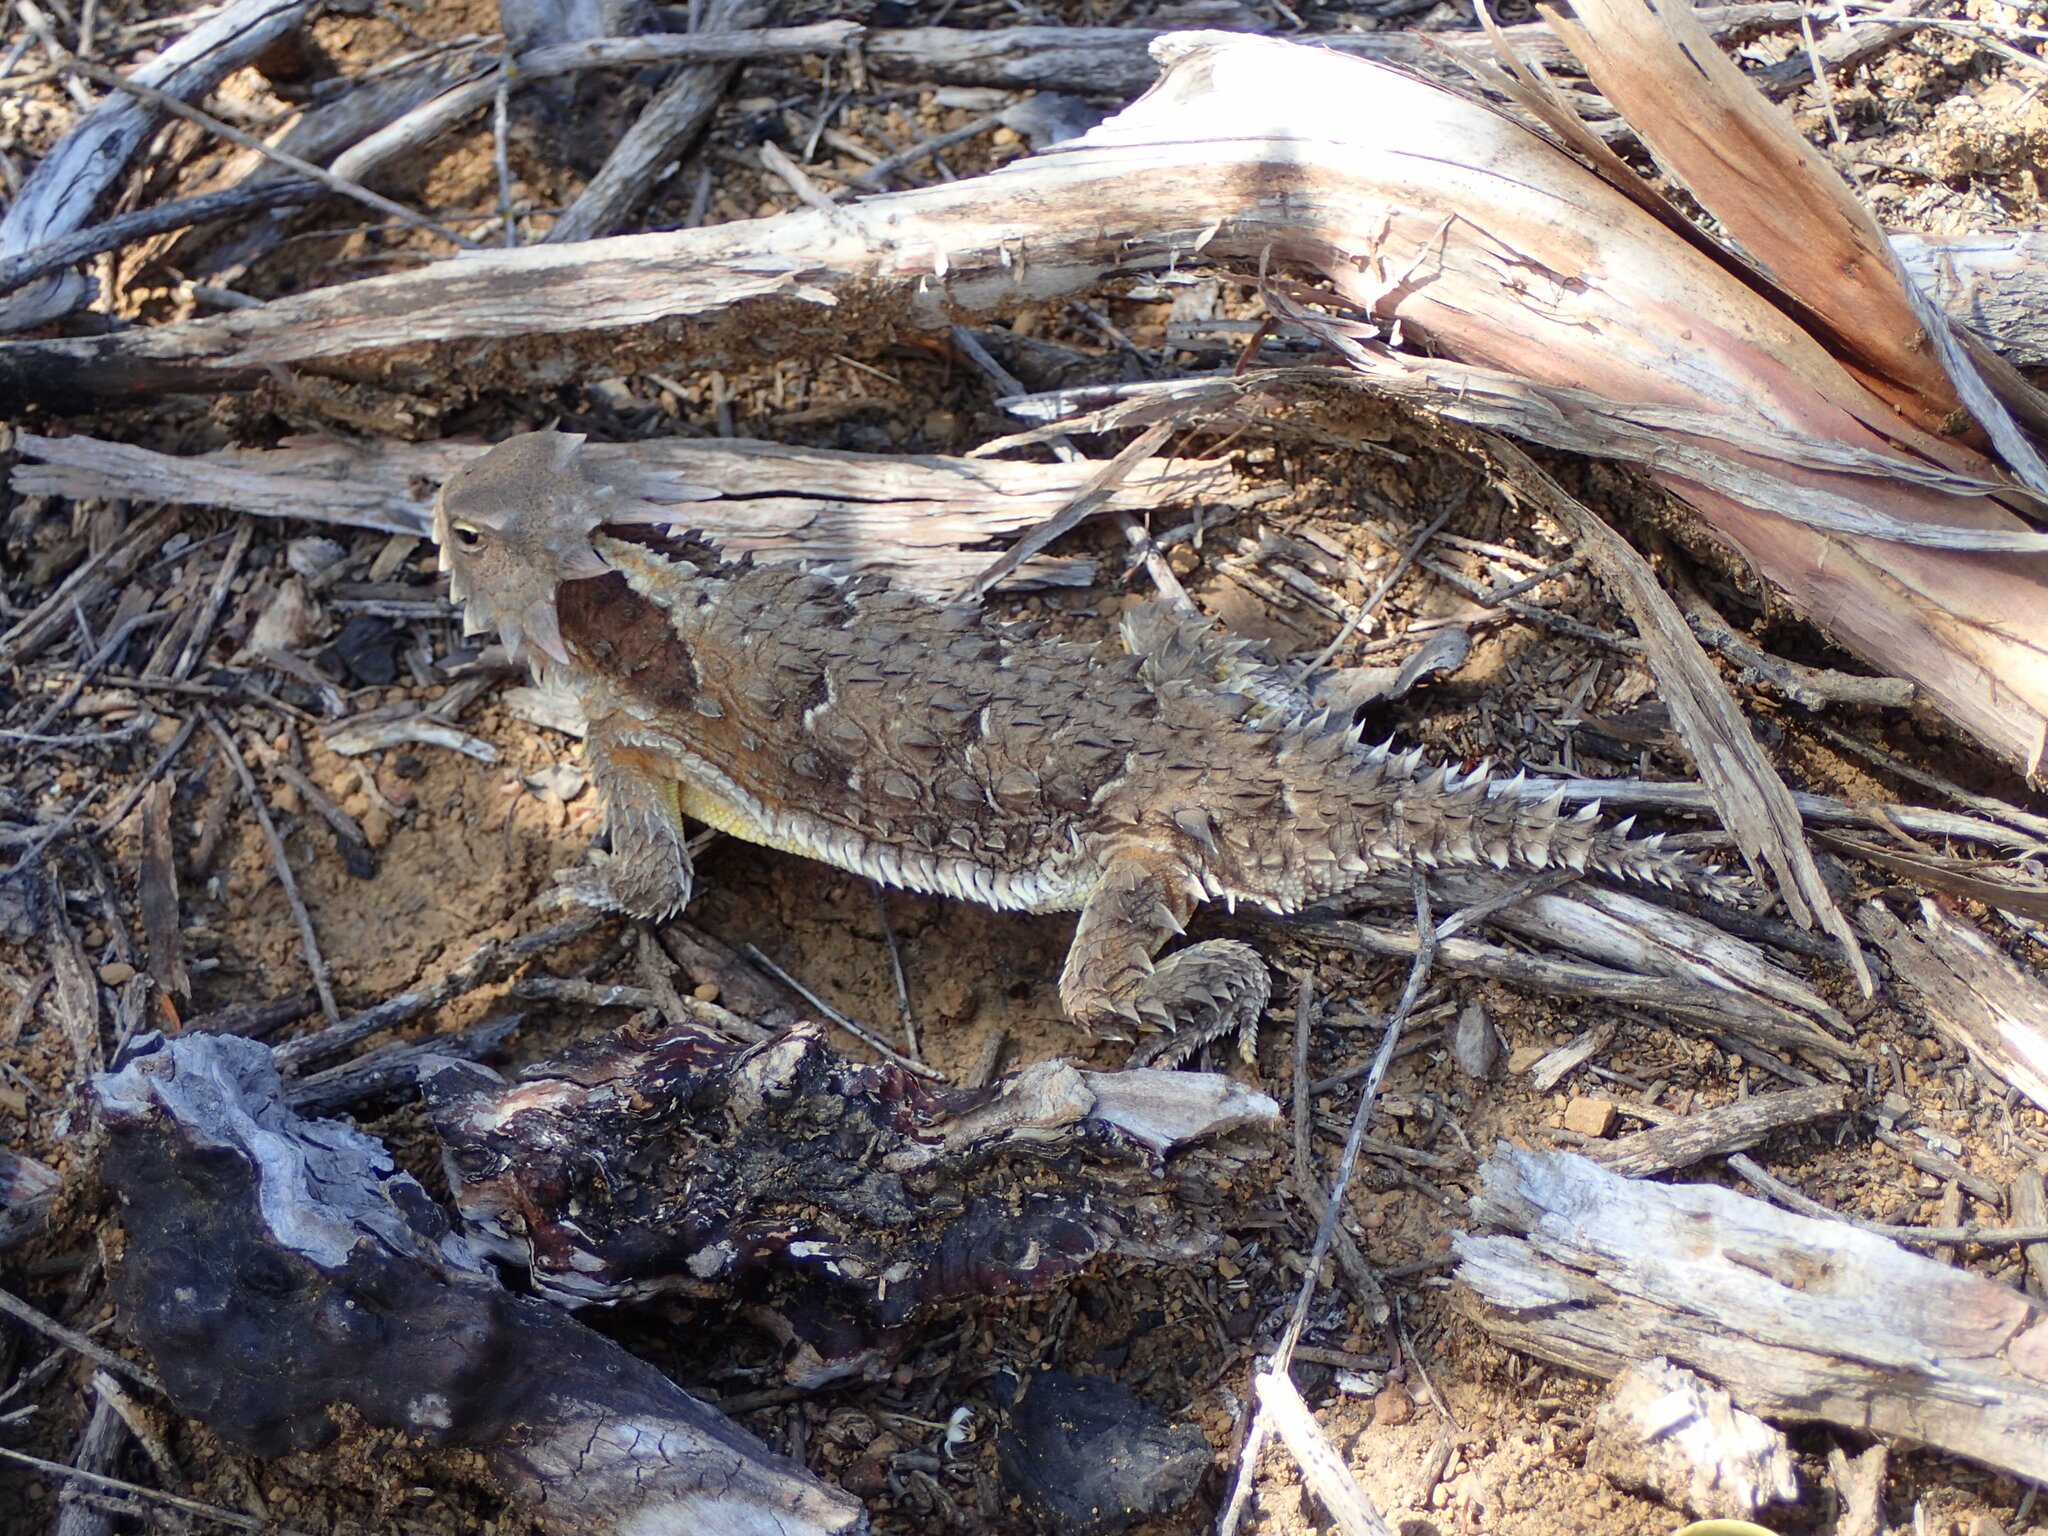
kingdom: Animalia
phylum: Chordata
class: Squamata
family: Phrynosomatidae
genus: Phrynosoma
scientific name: Phrynosoma blainvillii
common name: San diego horned lizard
